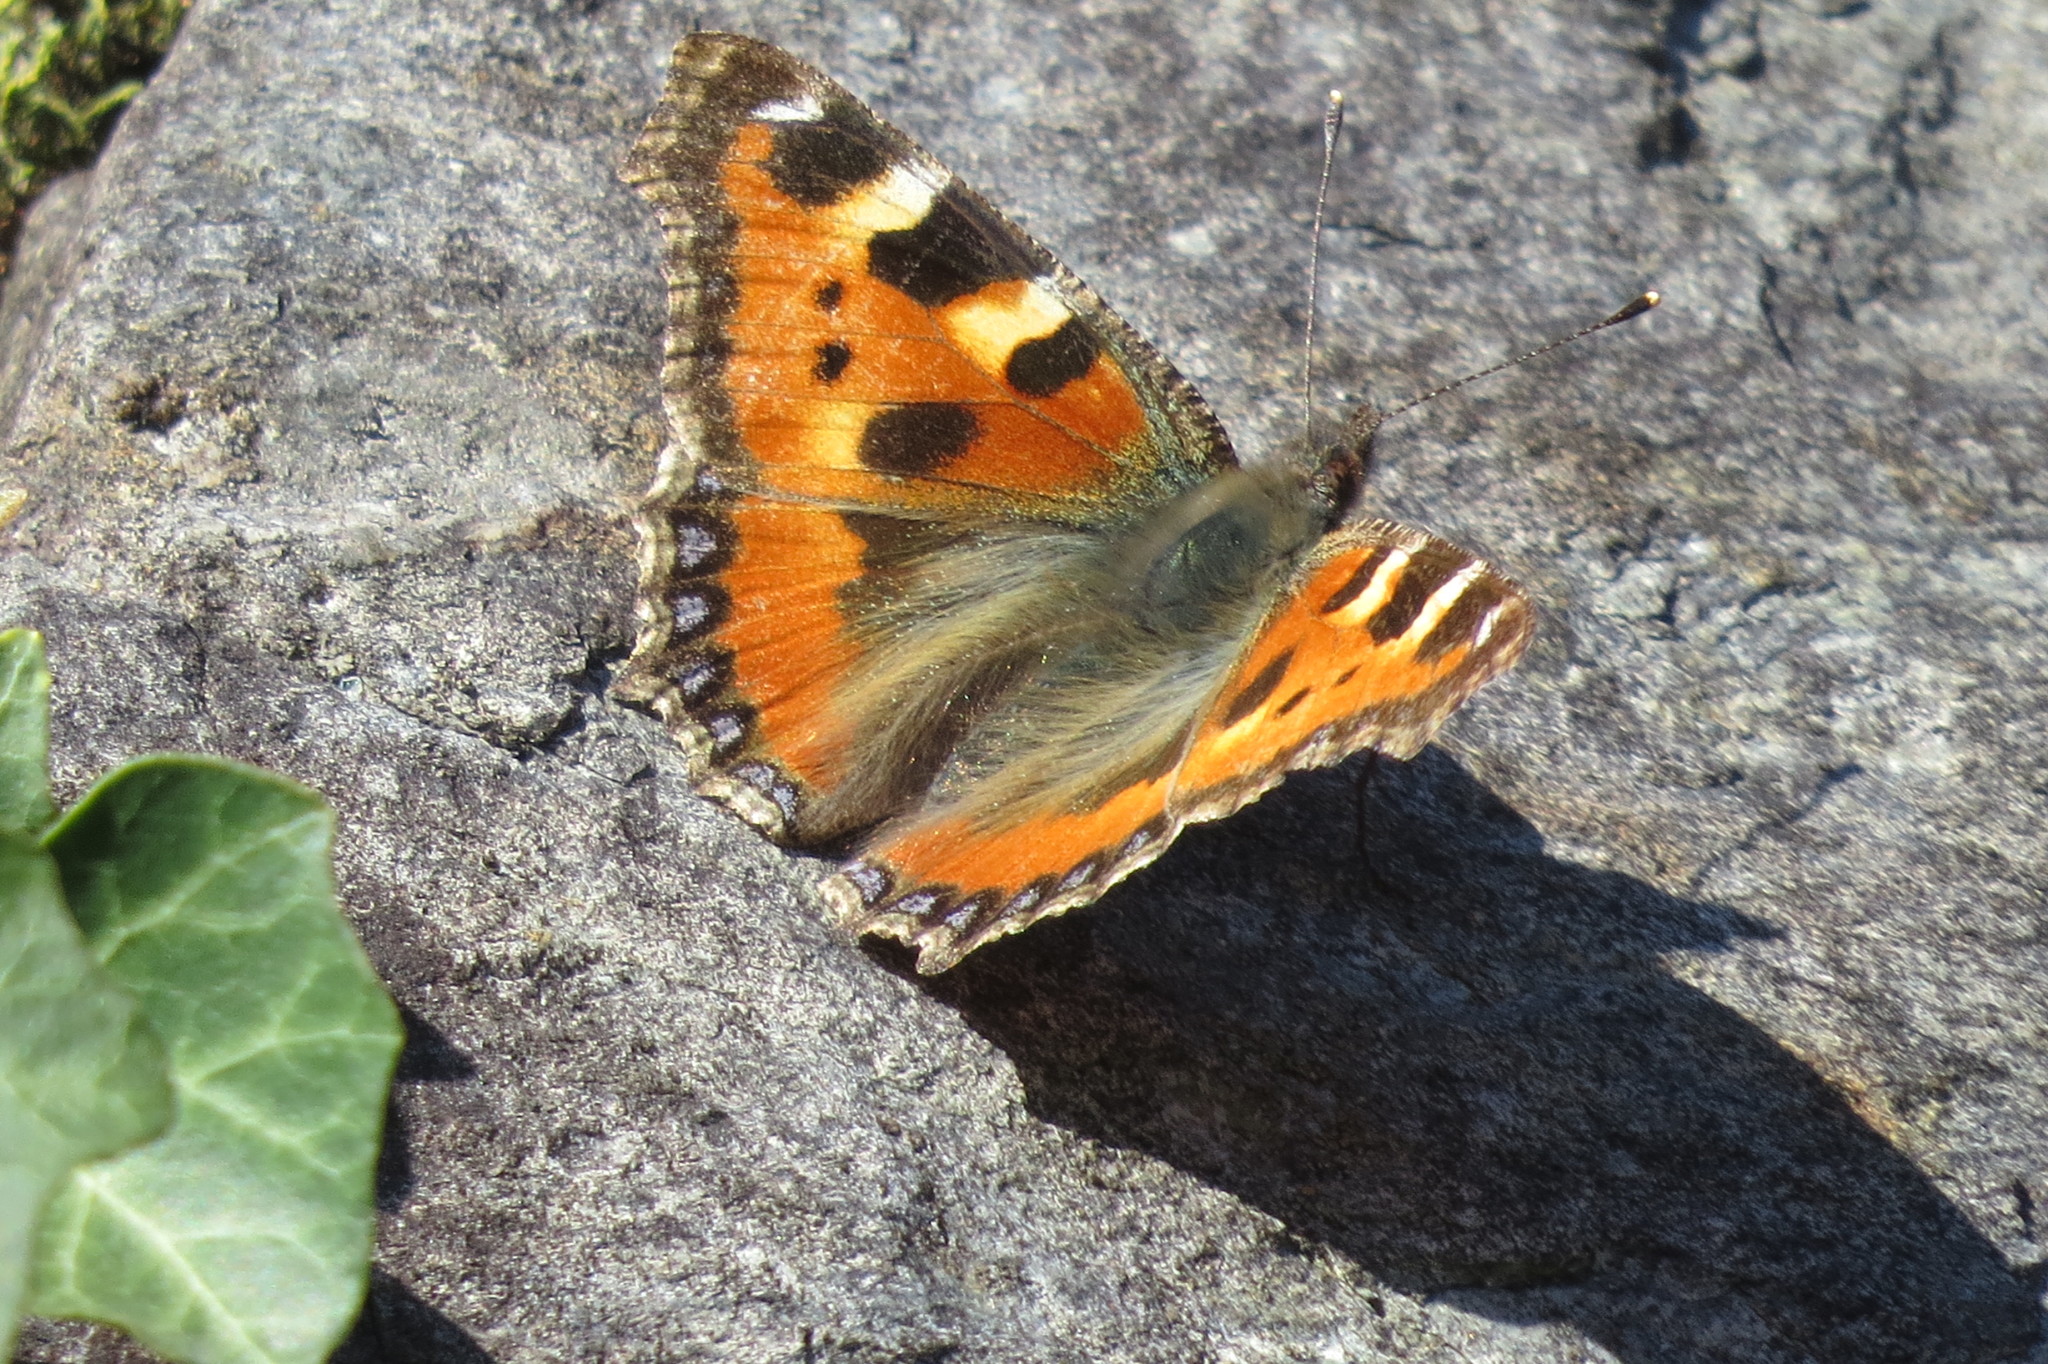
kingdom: Animalia
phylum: Arthropoda
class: Insecta
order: Lepidoptera
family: Nymphalidae
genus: Aglais
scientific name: Aglais urticae
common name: Small tortoiseshell
